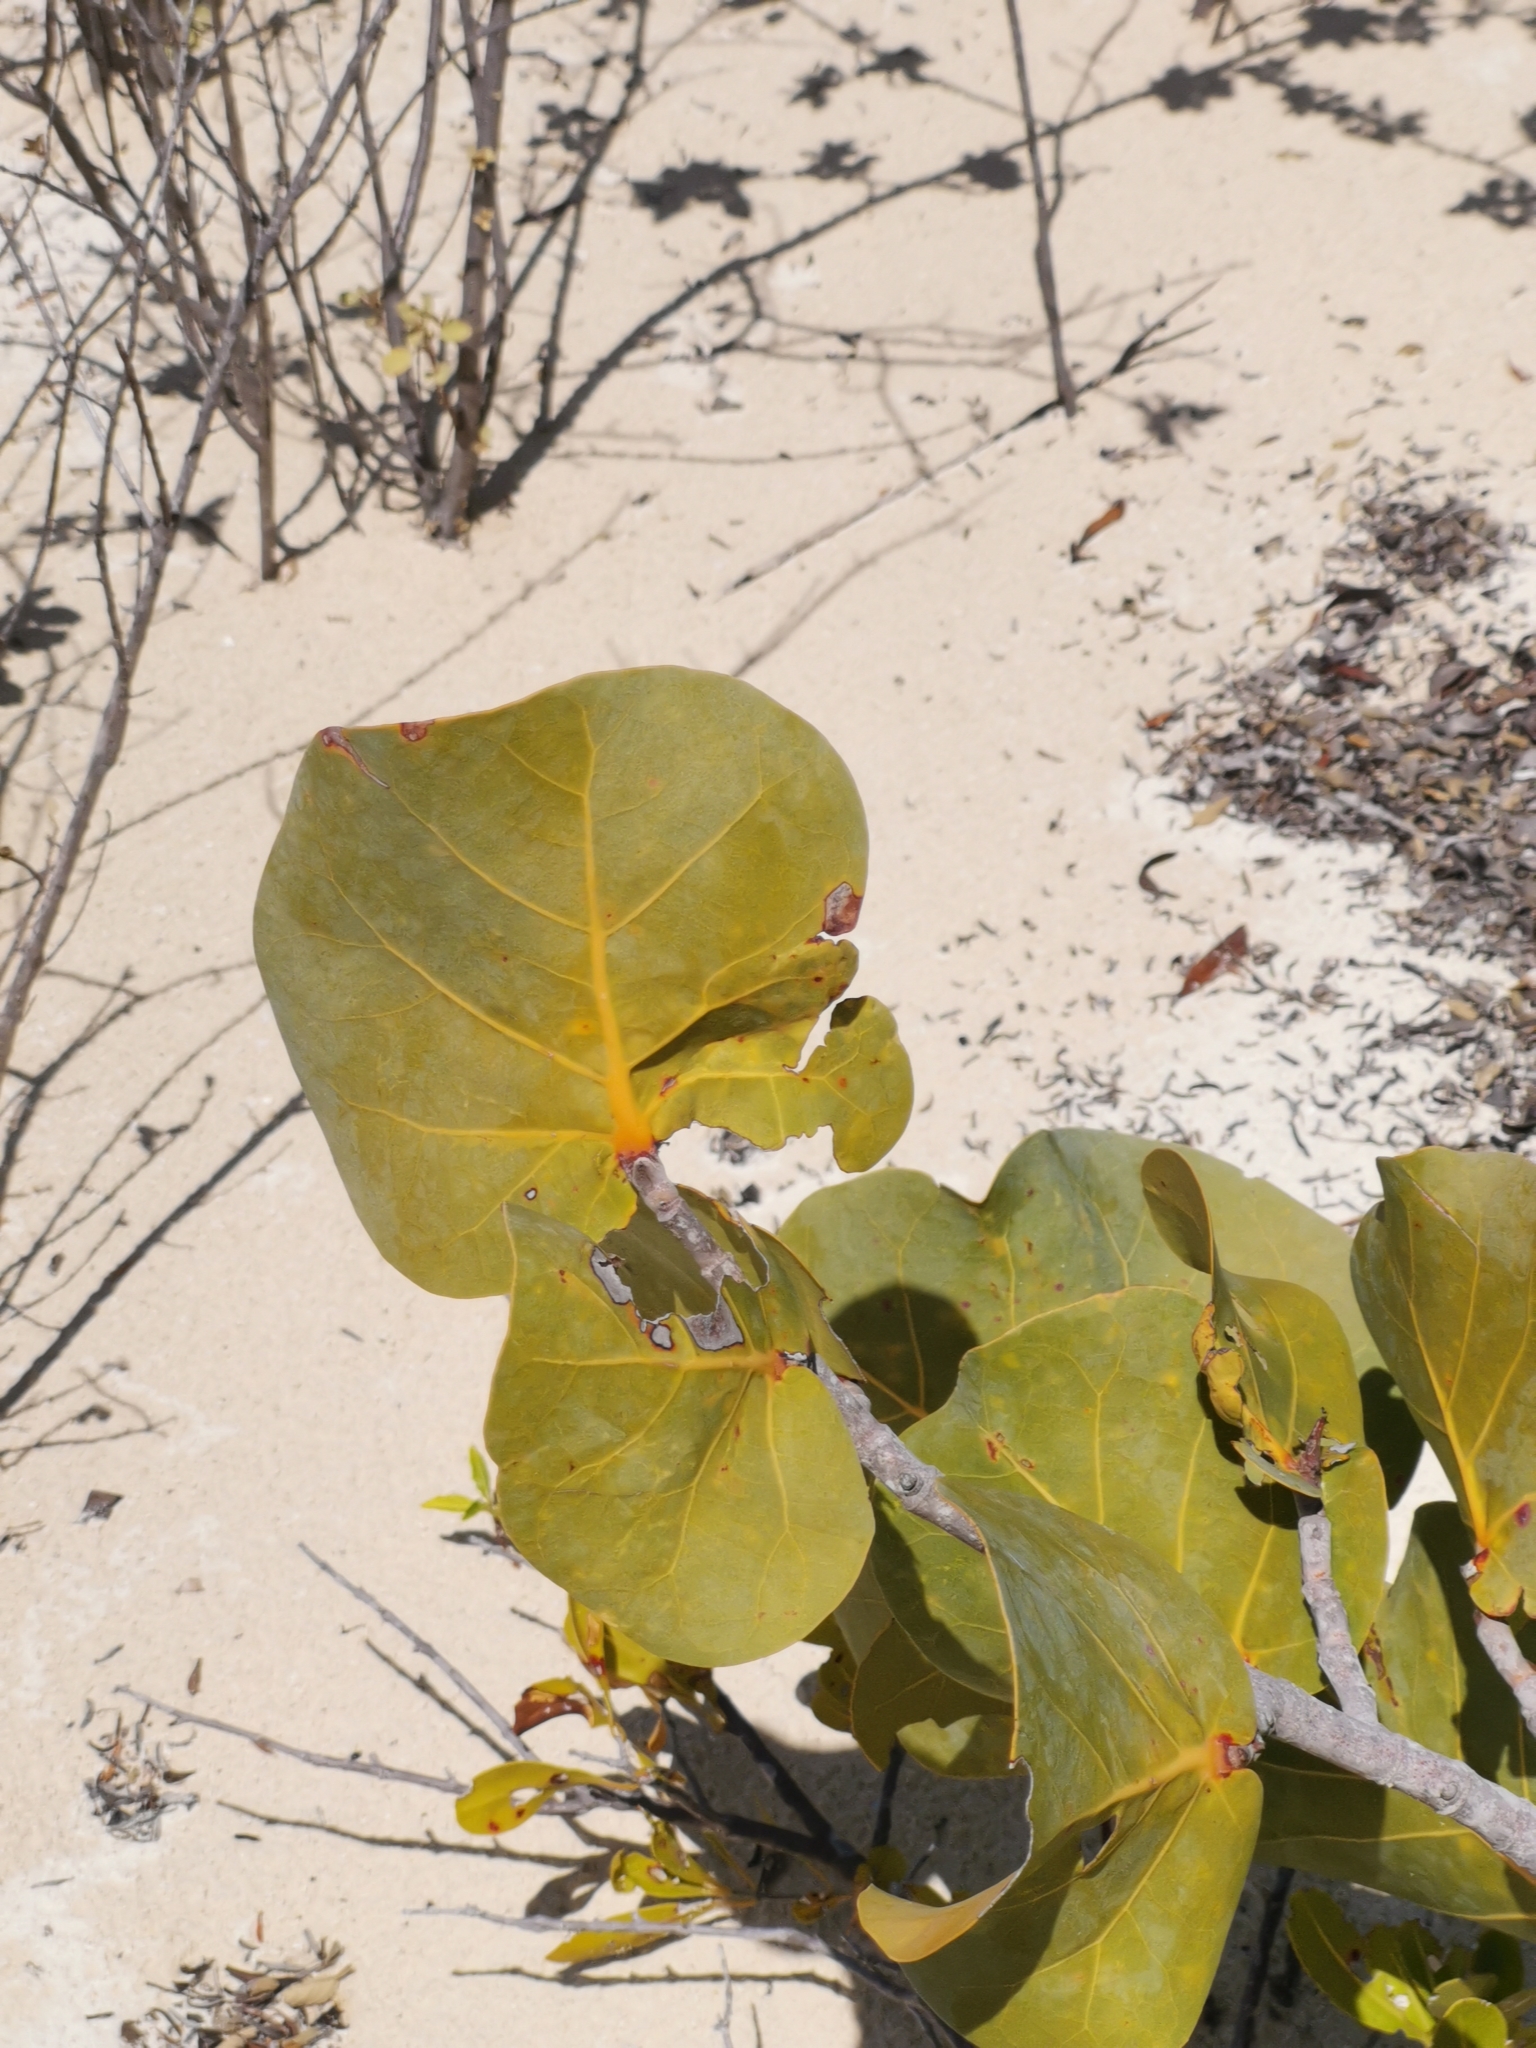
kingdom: Plantae
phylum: Tracheophyta
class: Magnoliopsida
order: Caryophyllales
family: Polygonaceae
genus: Coccoloba
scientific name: Coccoloba uvifera
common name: Seagrape
